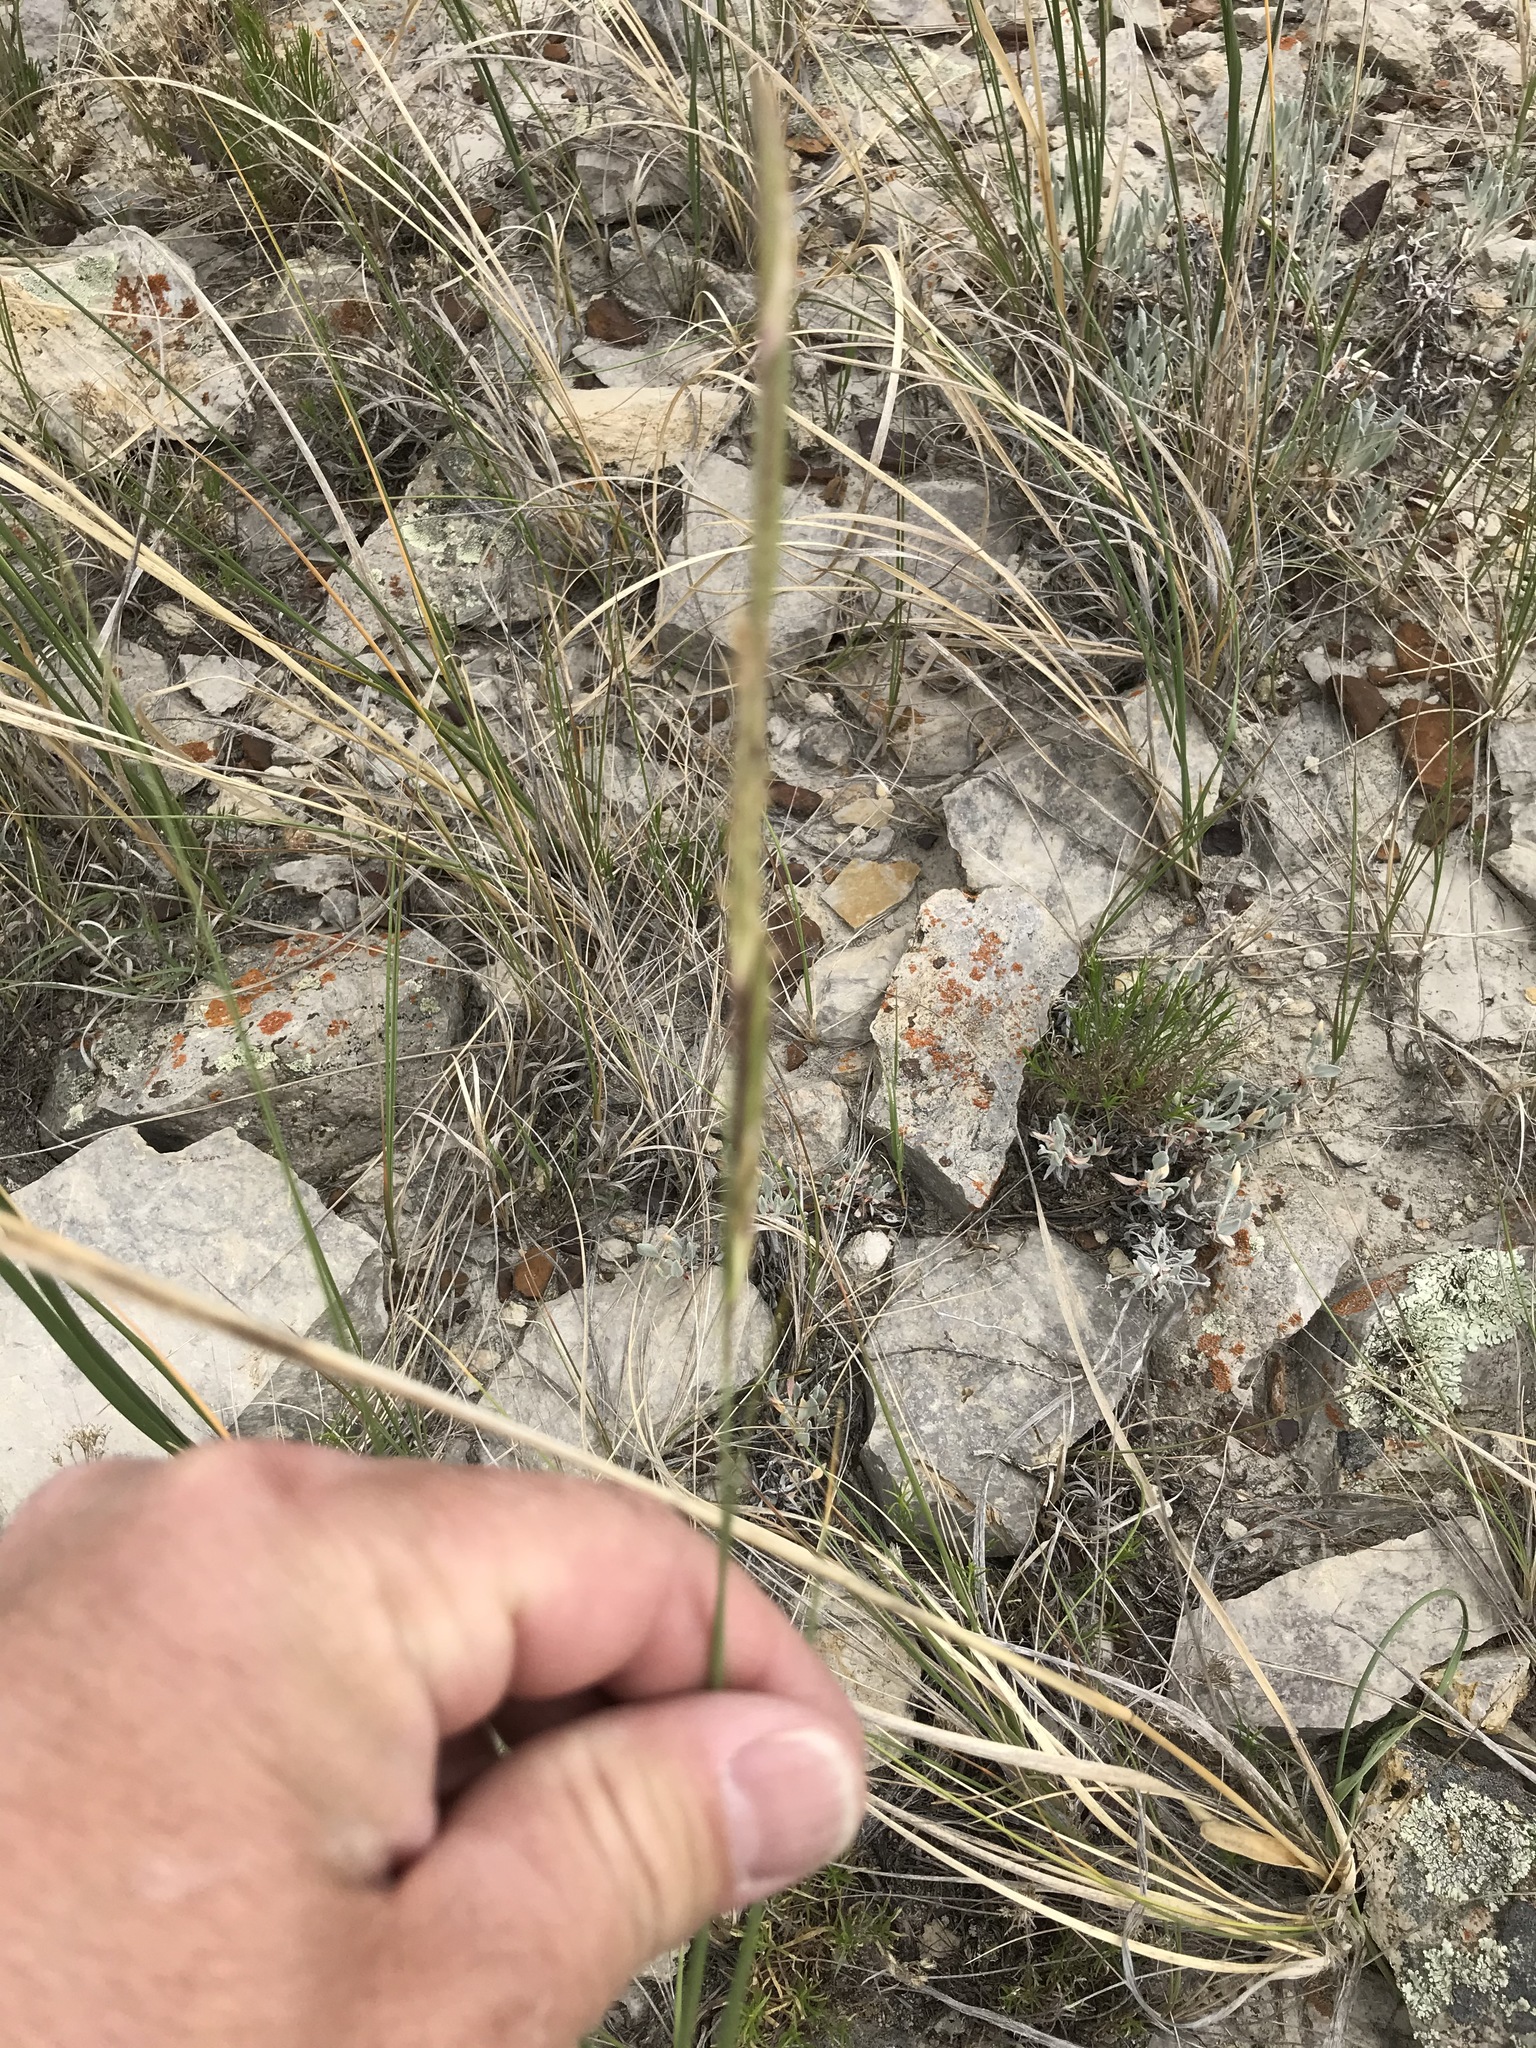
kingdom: Plantae
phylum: Tracheophyta
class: Liliopsida
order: Poales
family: Poaceae
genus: Sporobolus
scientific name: Sporobolus hookerianus
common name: Alkali cordgrass
